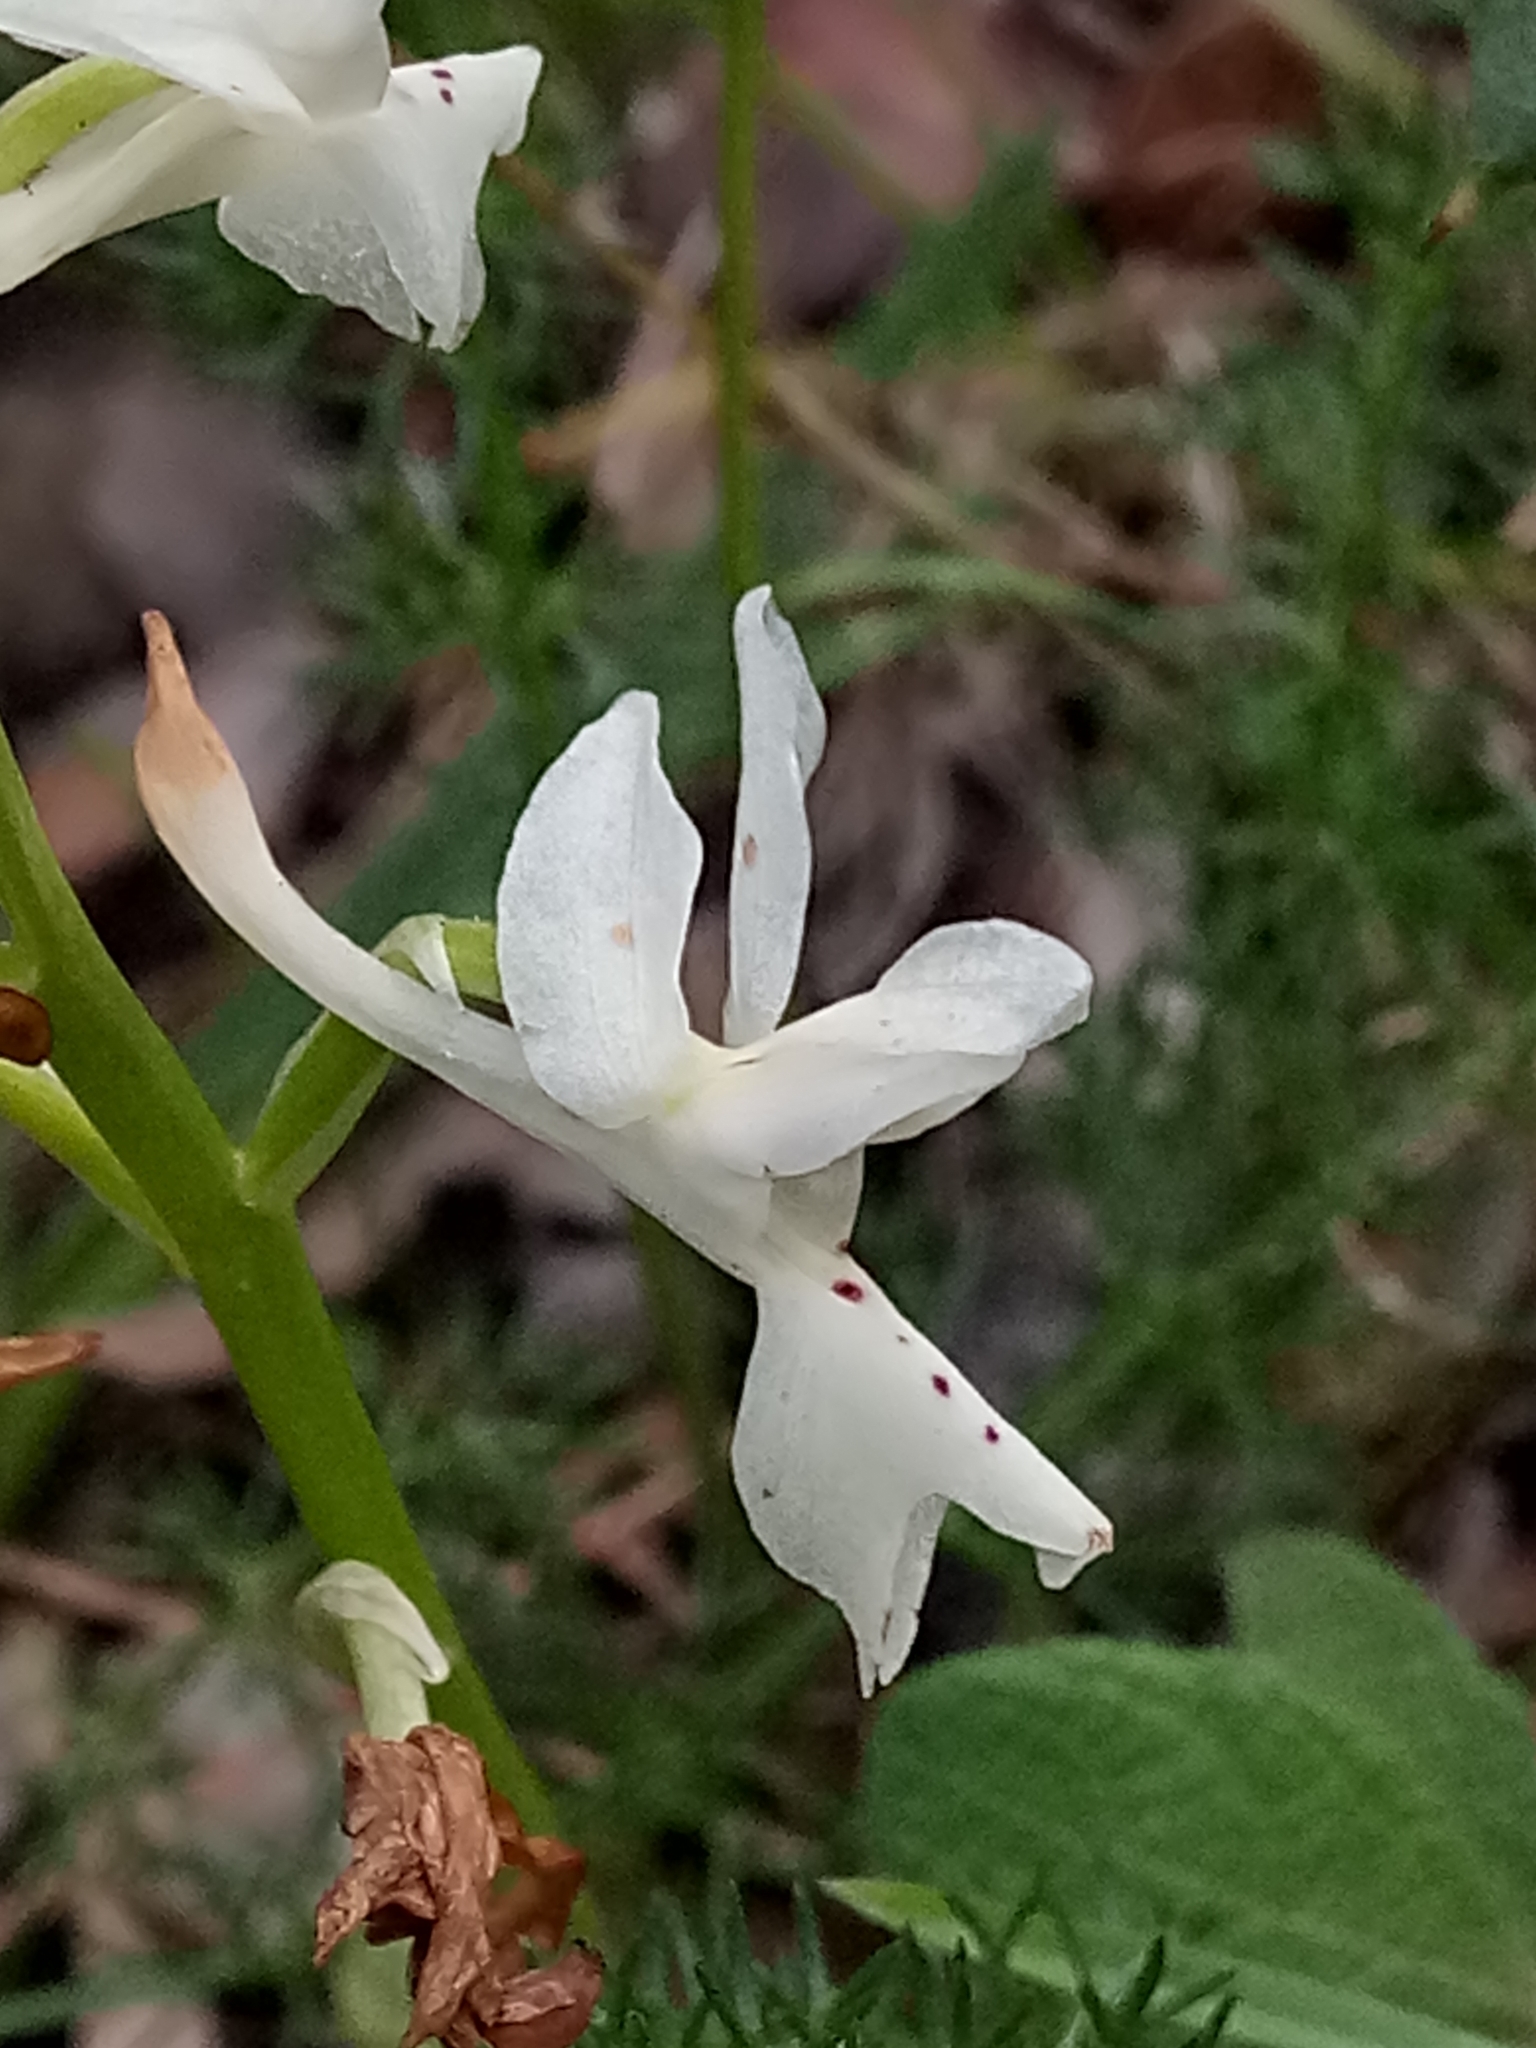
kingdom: Plantae
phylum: Tracheophyta
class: Liliopsida
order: Asparagales
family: Orchidaceae
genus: Orchis
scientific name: Orchis laeta
